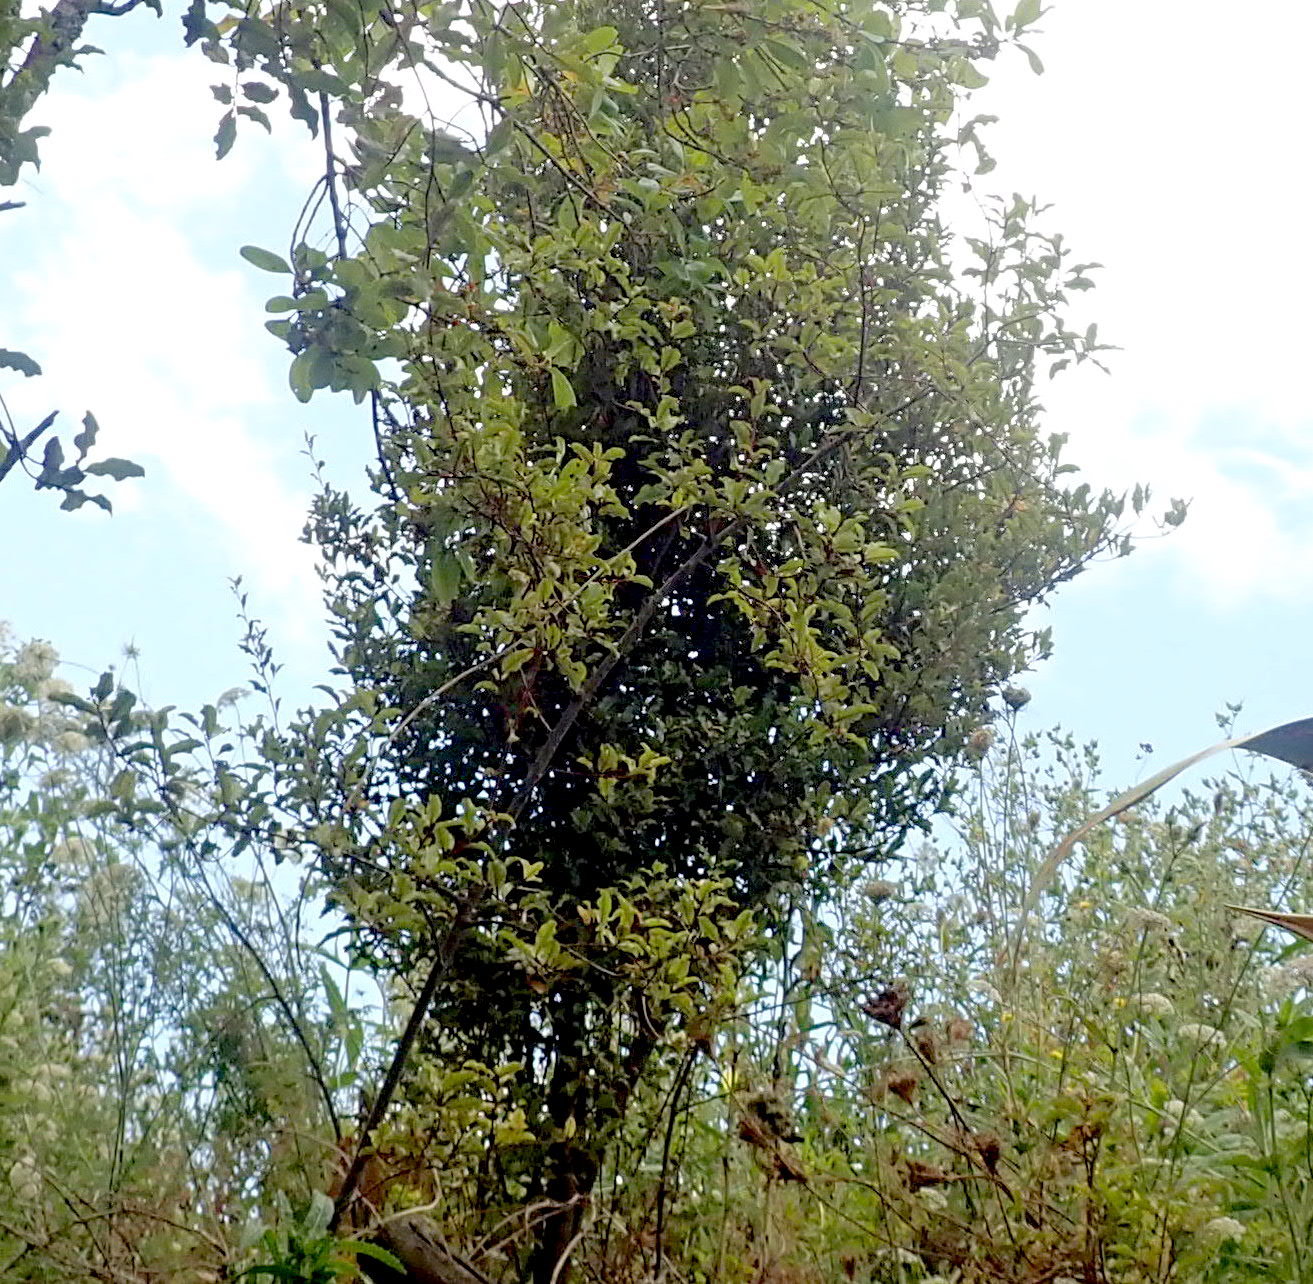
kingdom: Plantae
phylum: Tracheophyta
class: Magnoliopsida
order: Ericales
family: Primulaceae
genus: Myrsine
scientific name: Myrsine australis
